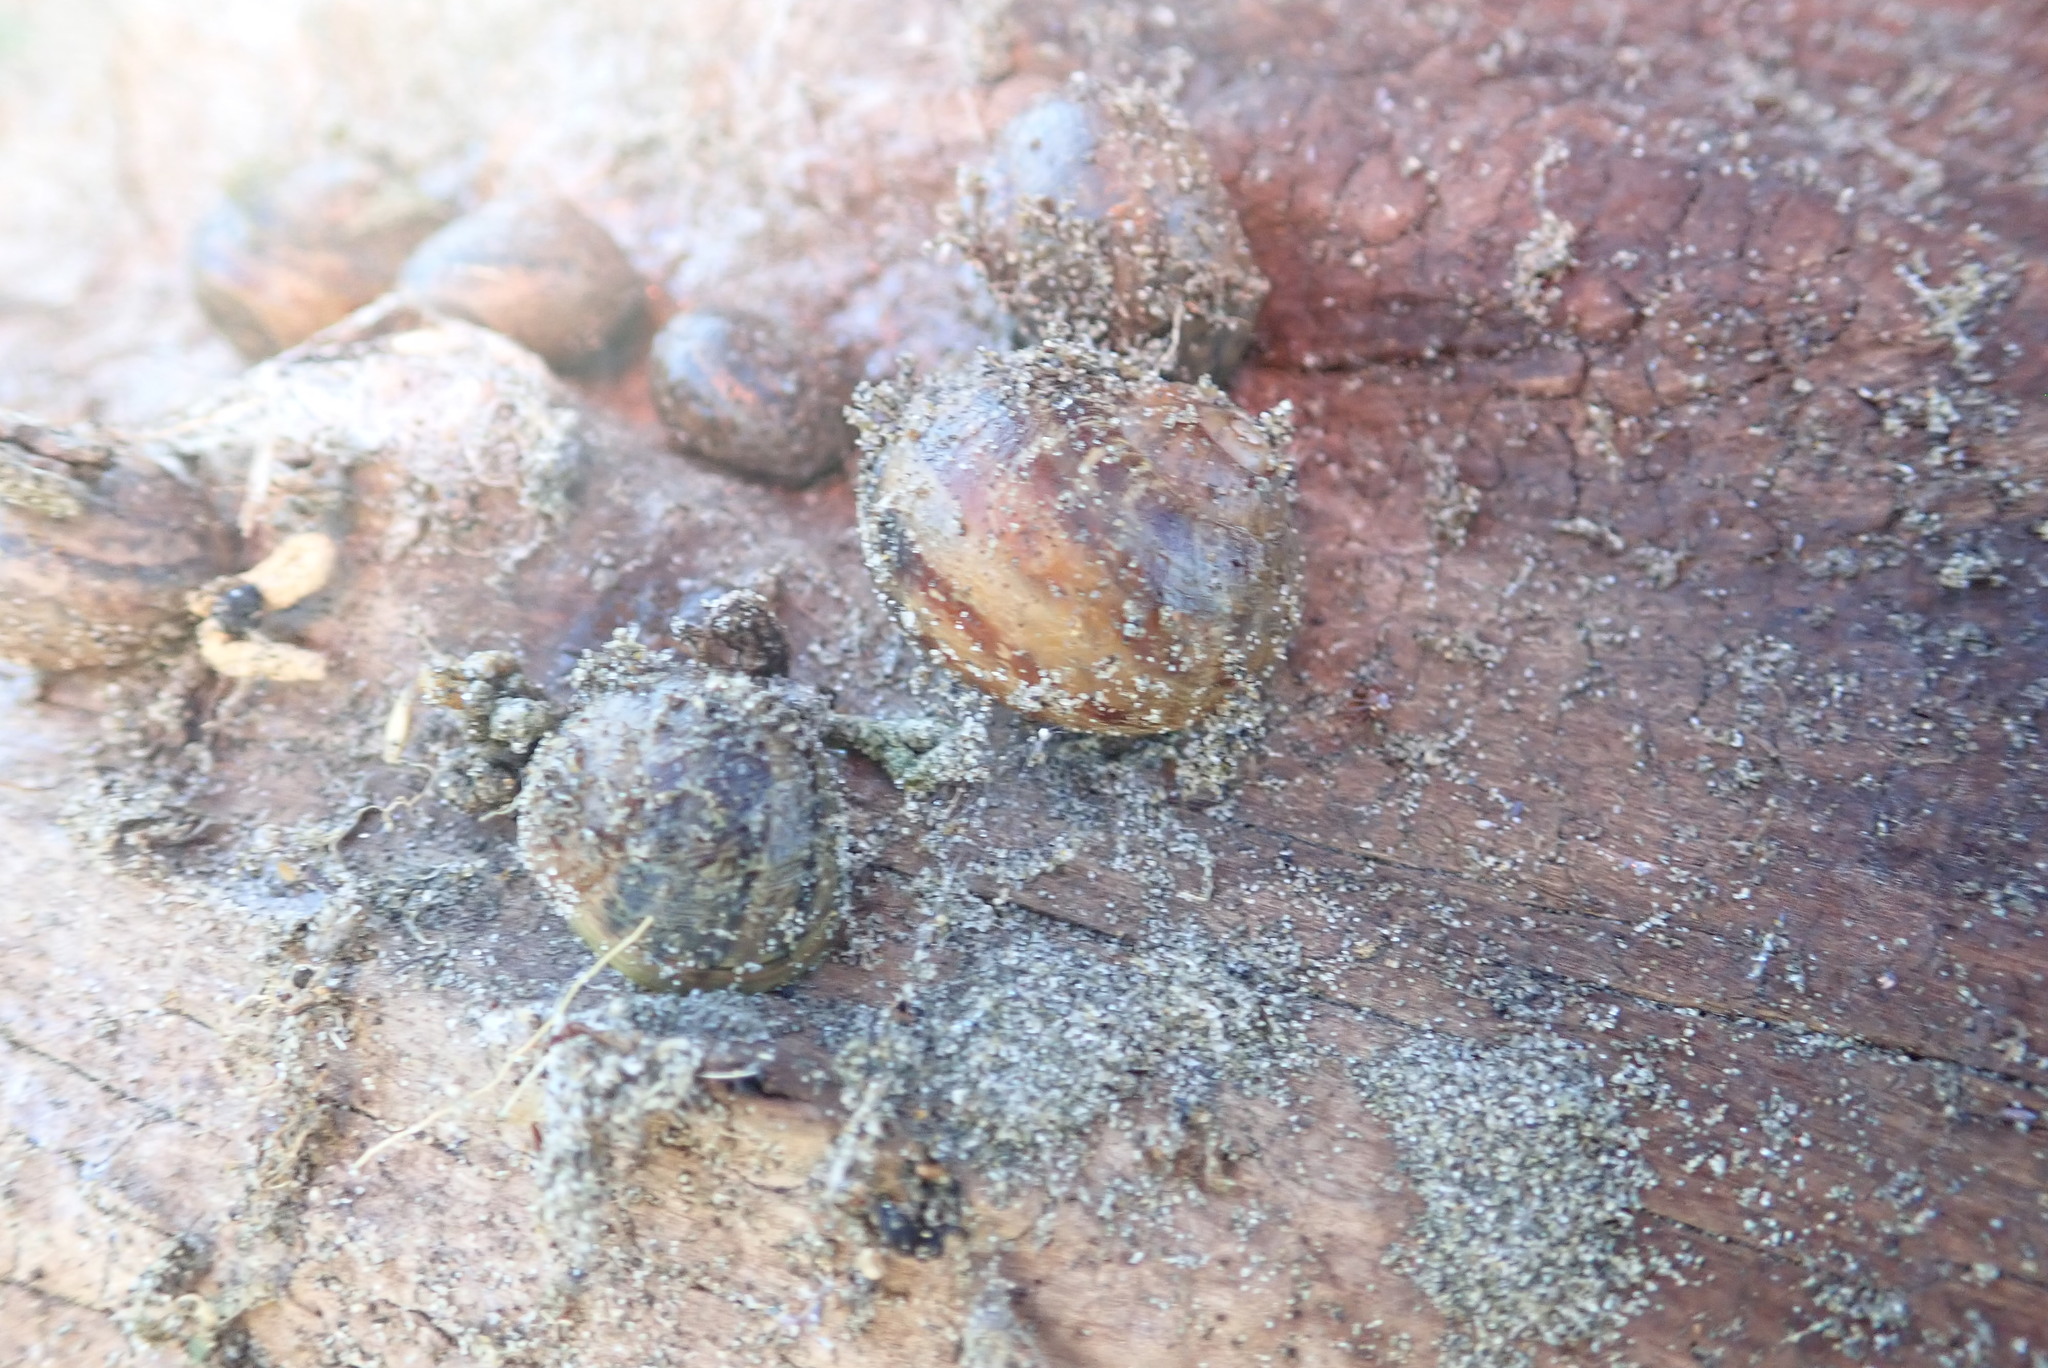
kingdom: Animalia
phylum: Mollusca
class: Gastropoda
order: Stylommatophora
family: Helicidae
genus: Cornu
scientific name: Cornu aspersum
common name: Brown garden snail
